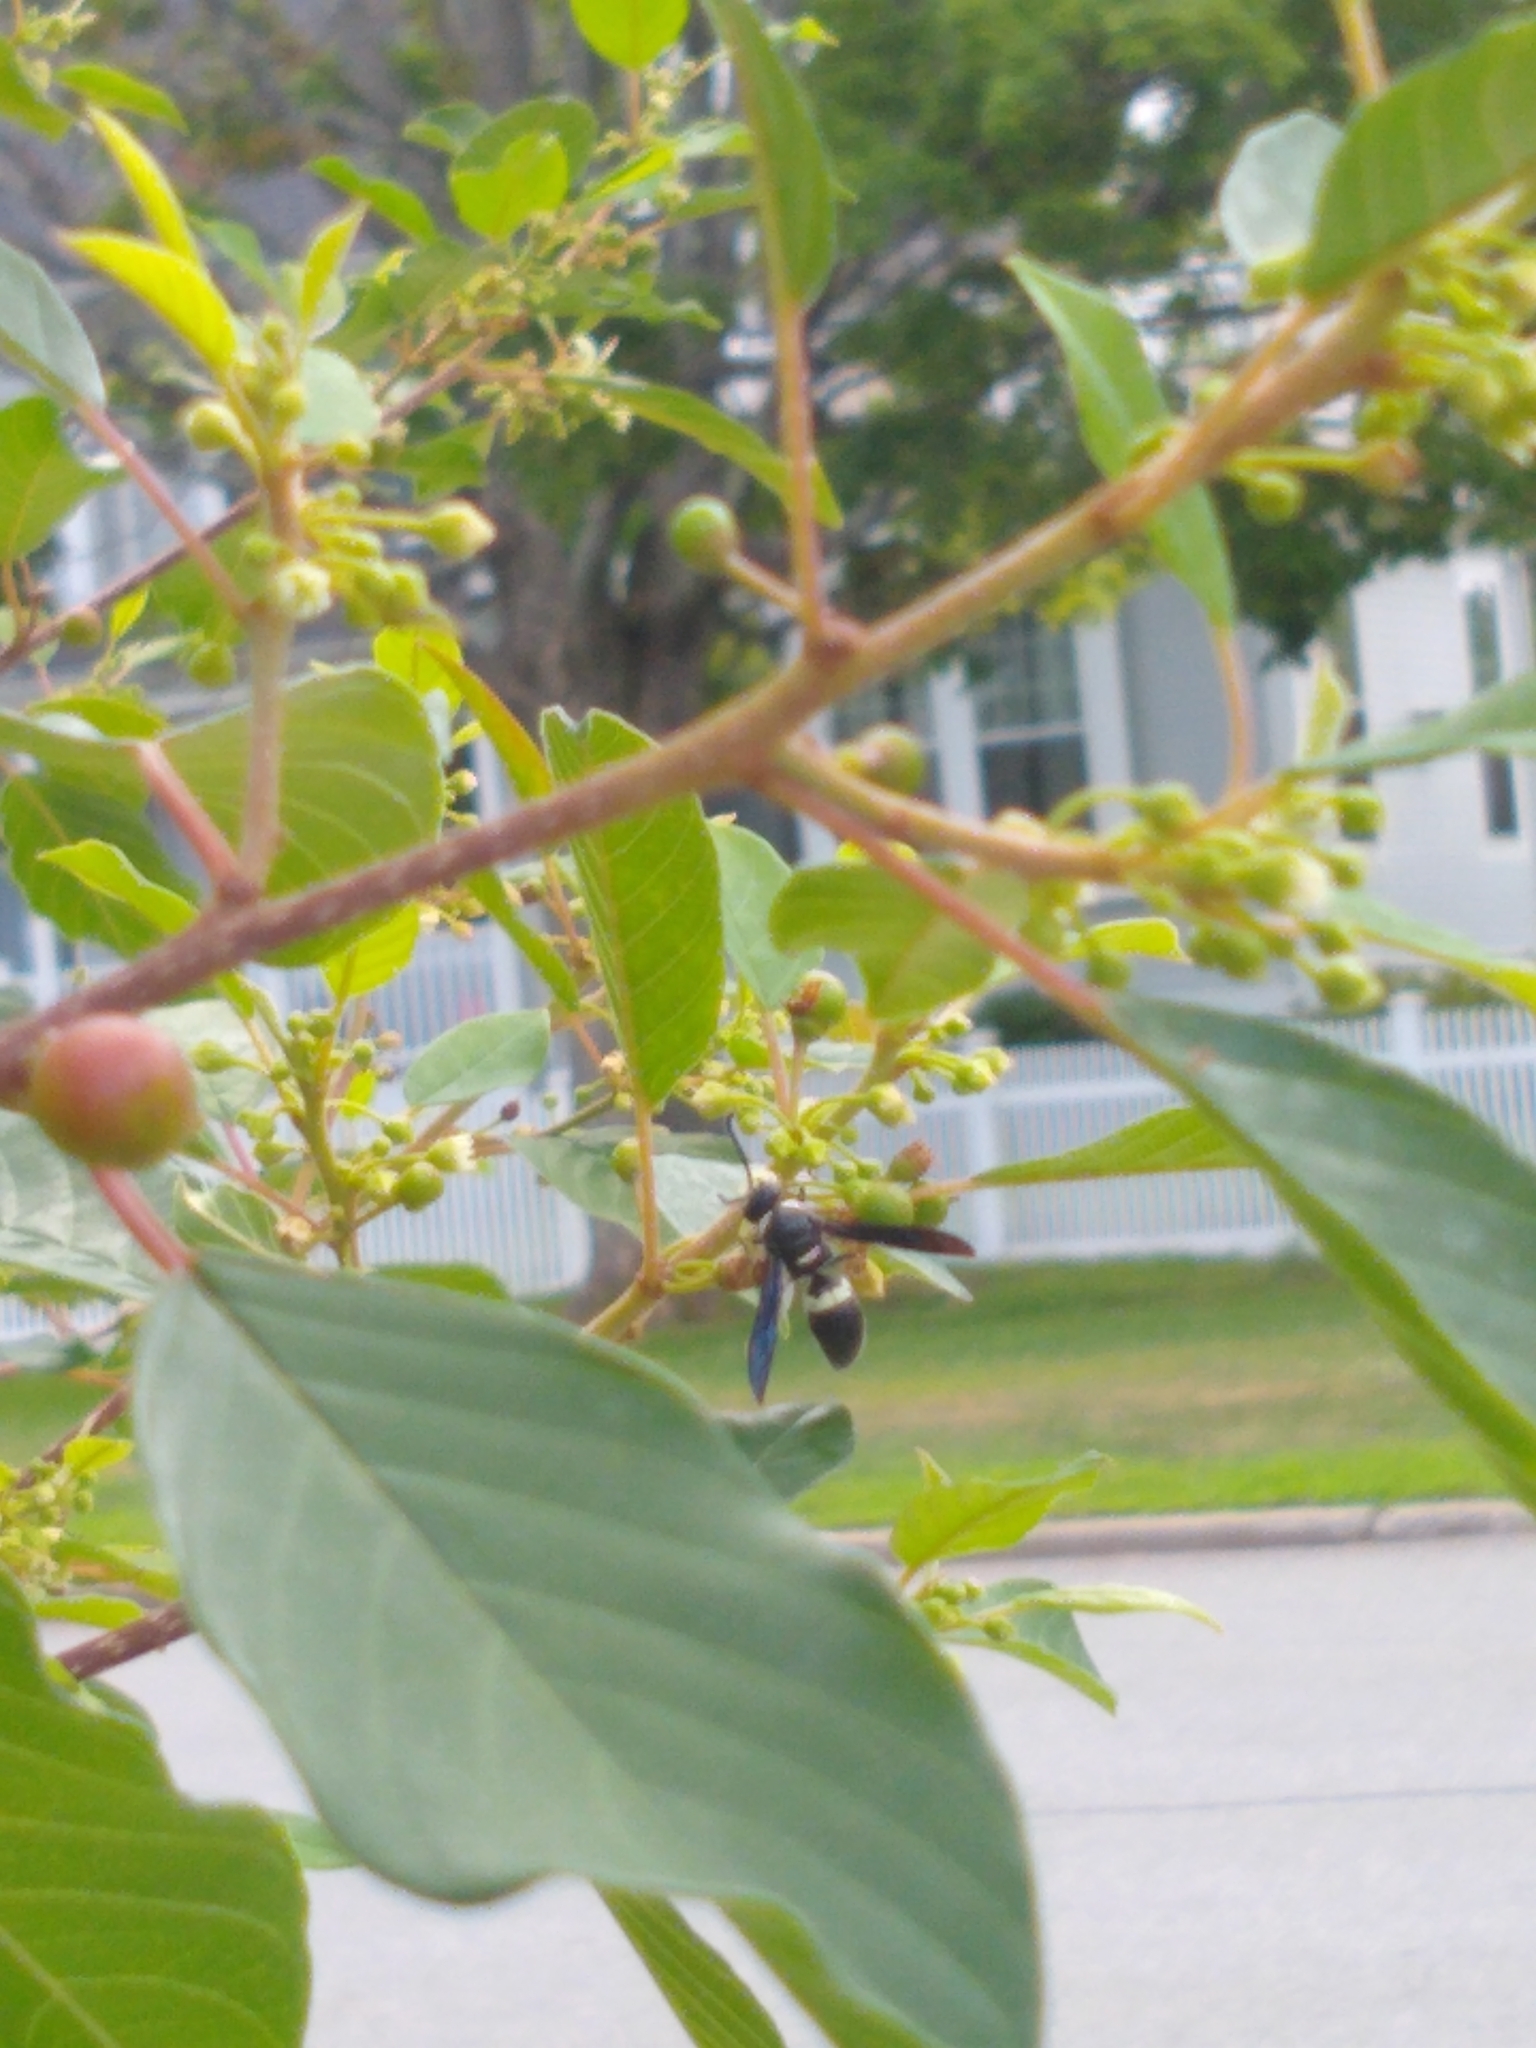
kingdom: Animalia
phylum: Arthropoda
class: Insecta
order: Hymenoptera
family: Eumenidae
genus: Monobia
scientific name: Monobia quadridens
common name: Four-toothed mason wasp
